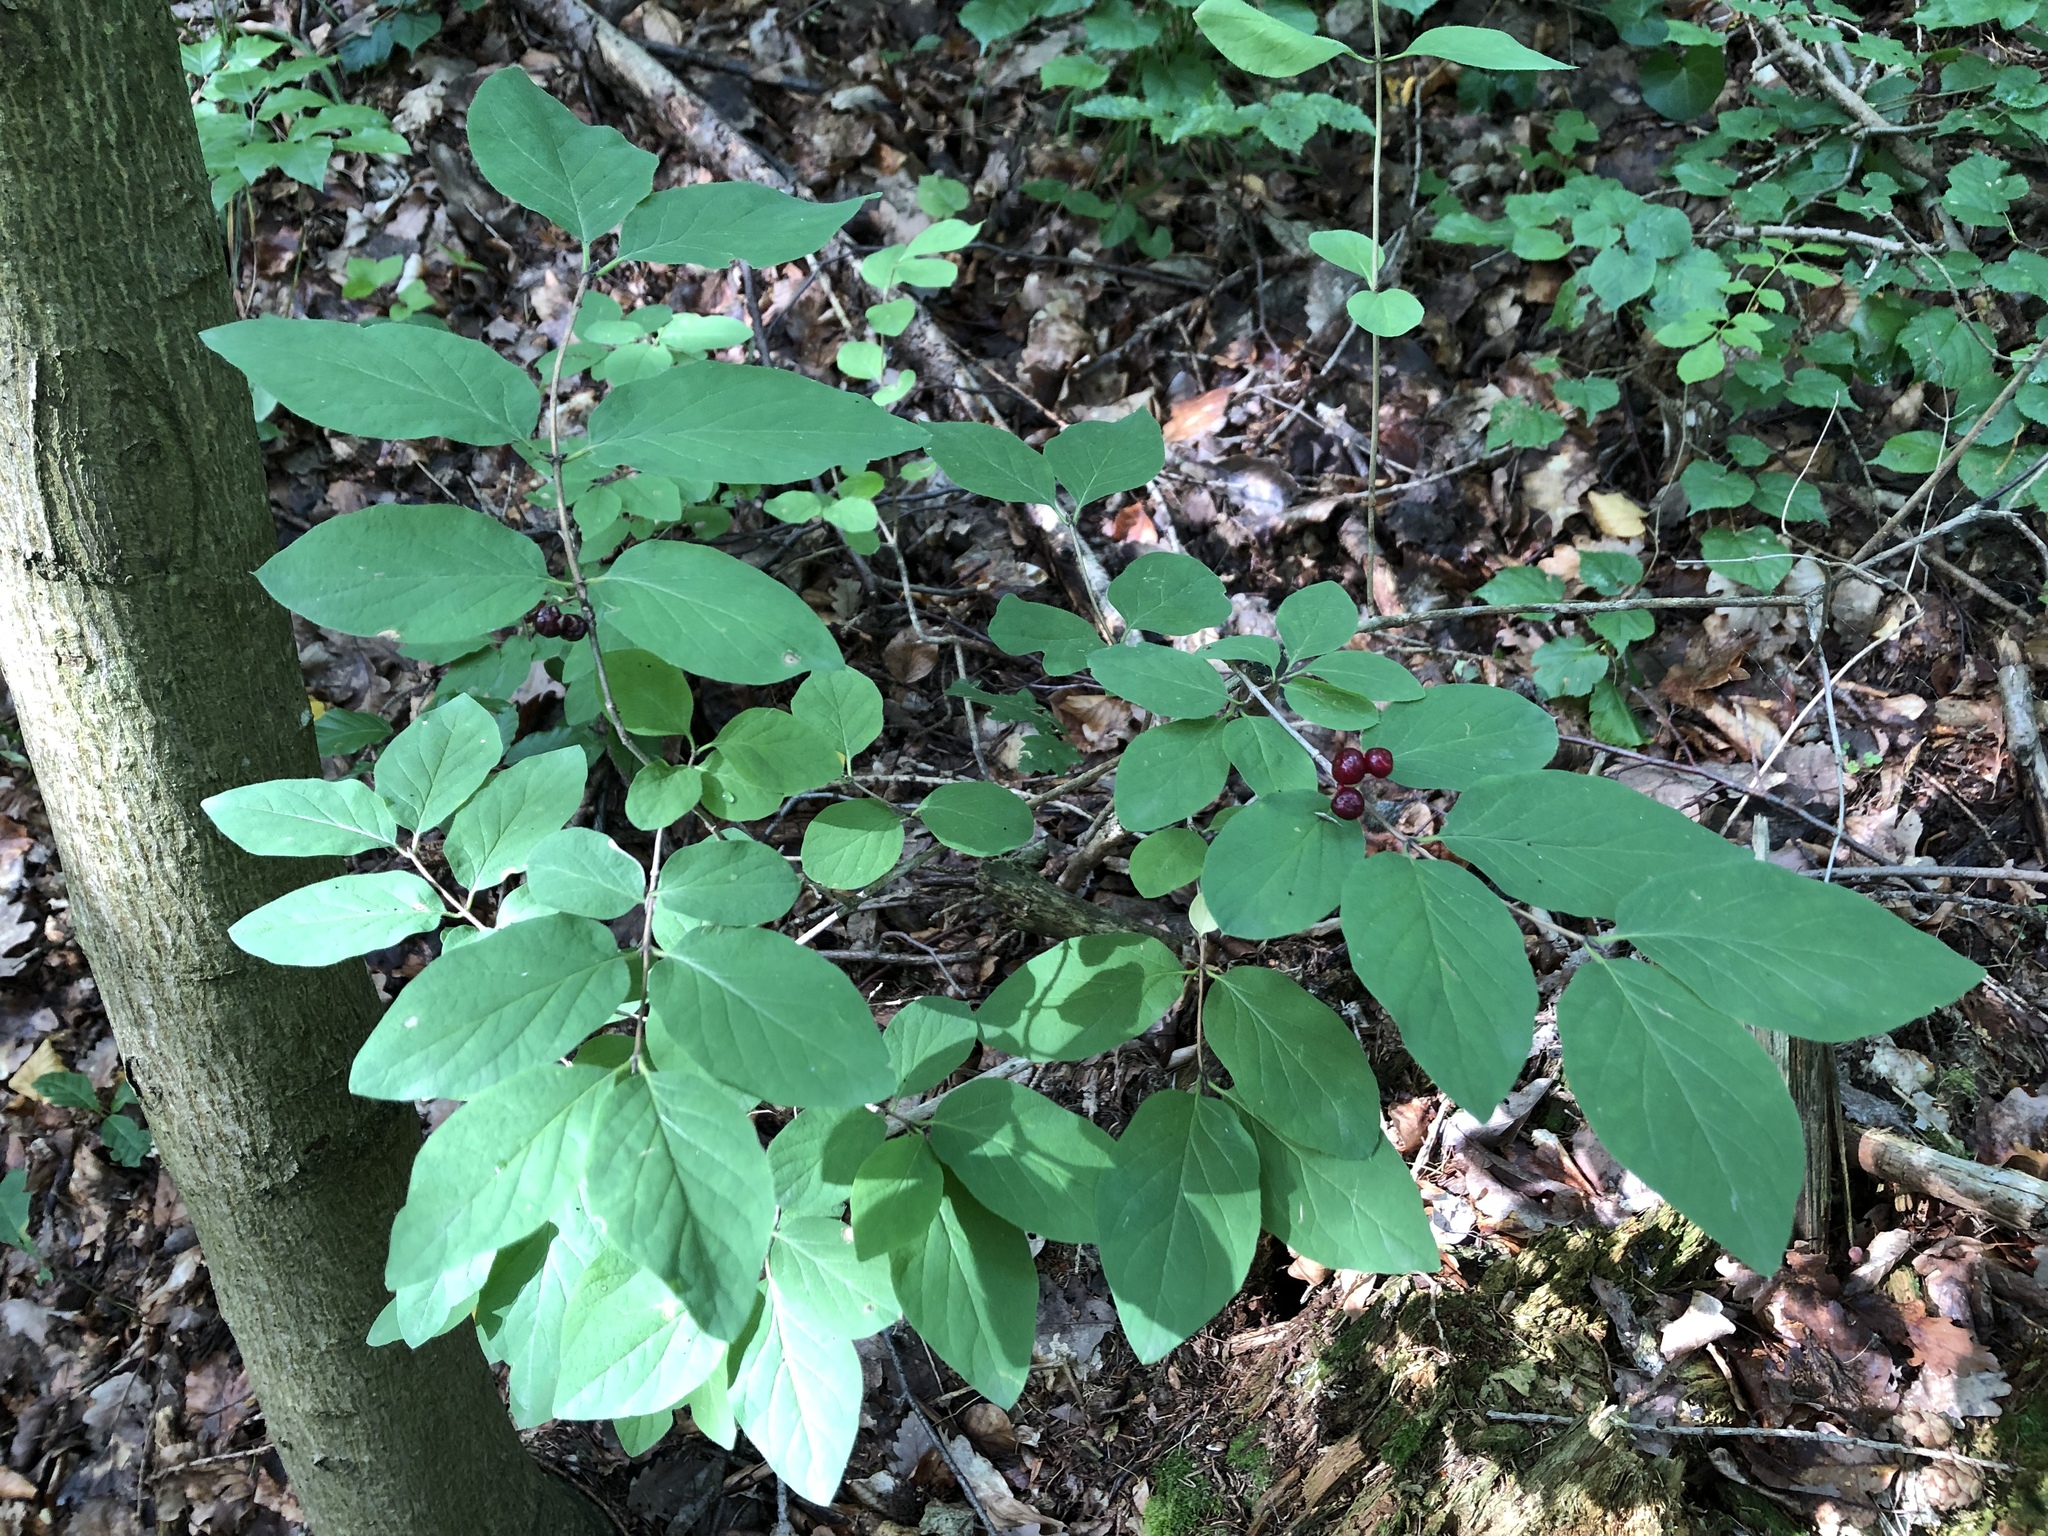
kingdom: Plantae
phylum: Tracheophyta
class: Magnoliopsida
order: Dipsacales
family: Caprifoliaceae
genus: Lonicera
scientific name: Lonicera xylosteum
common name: Fly honeysuckle
